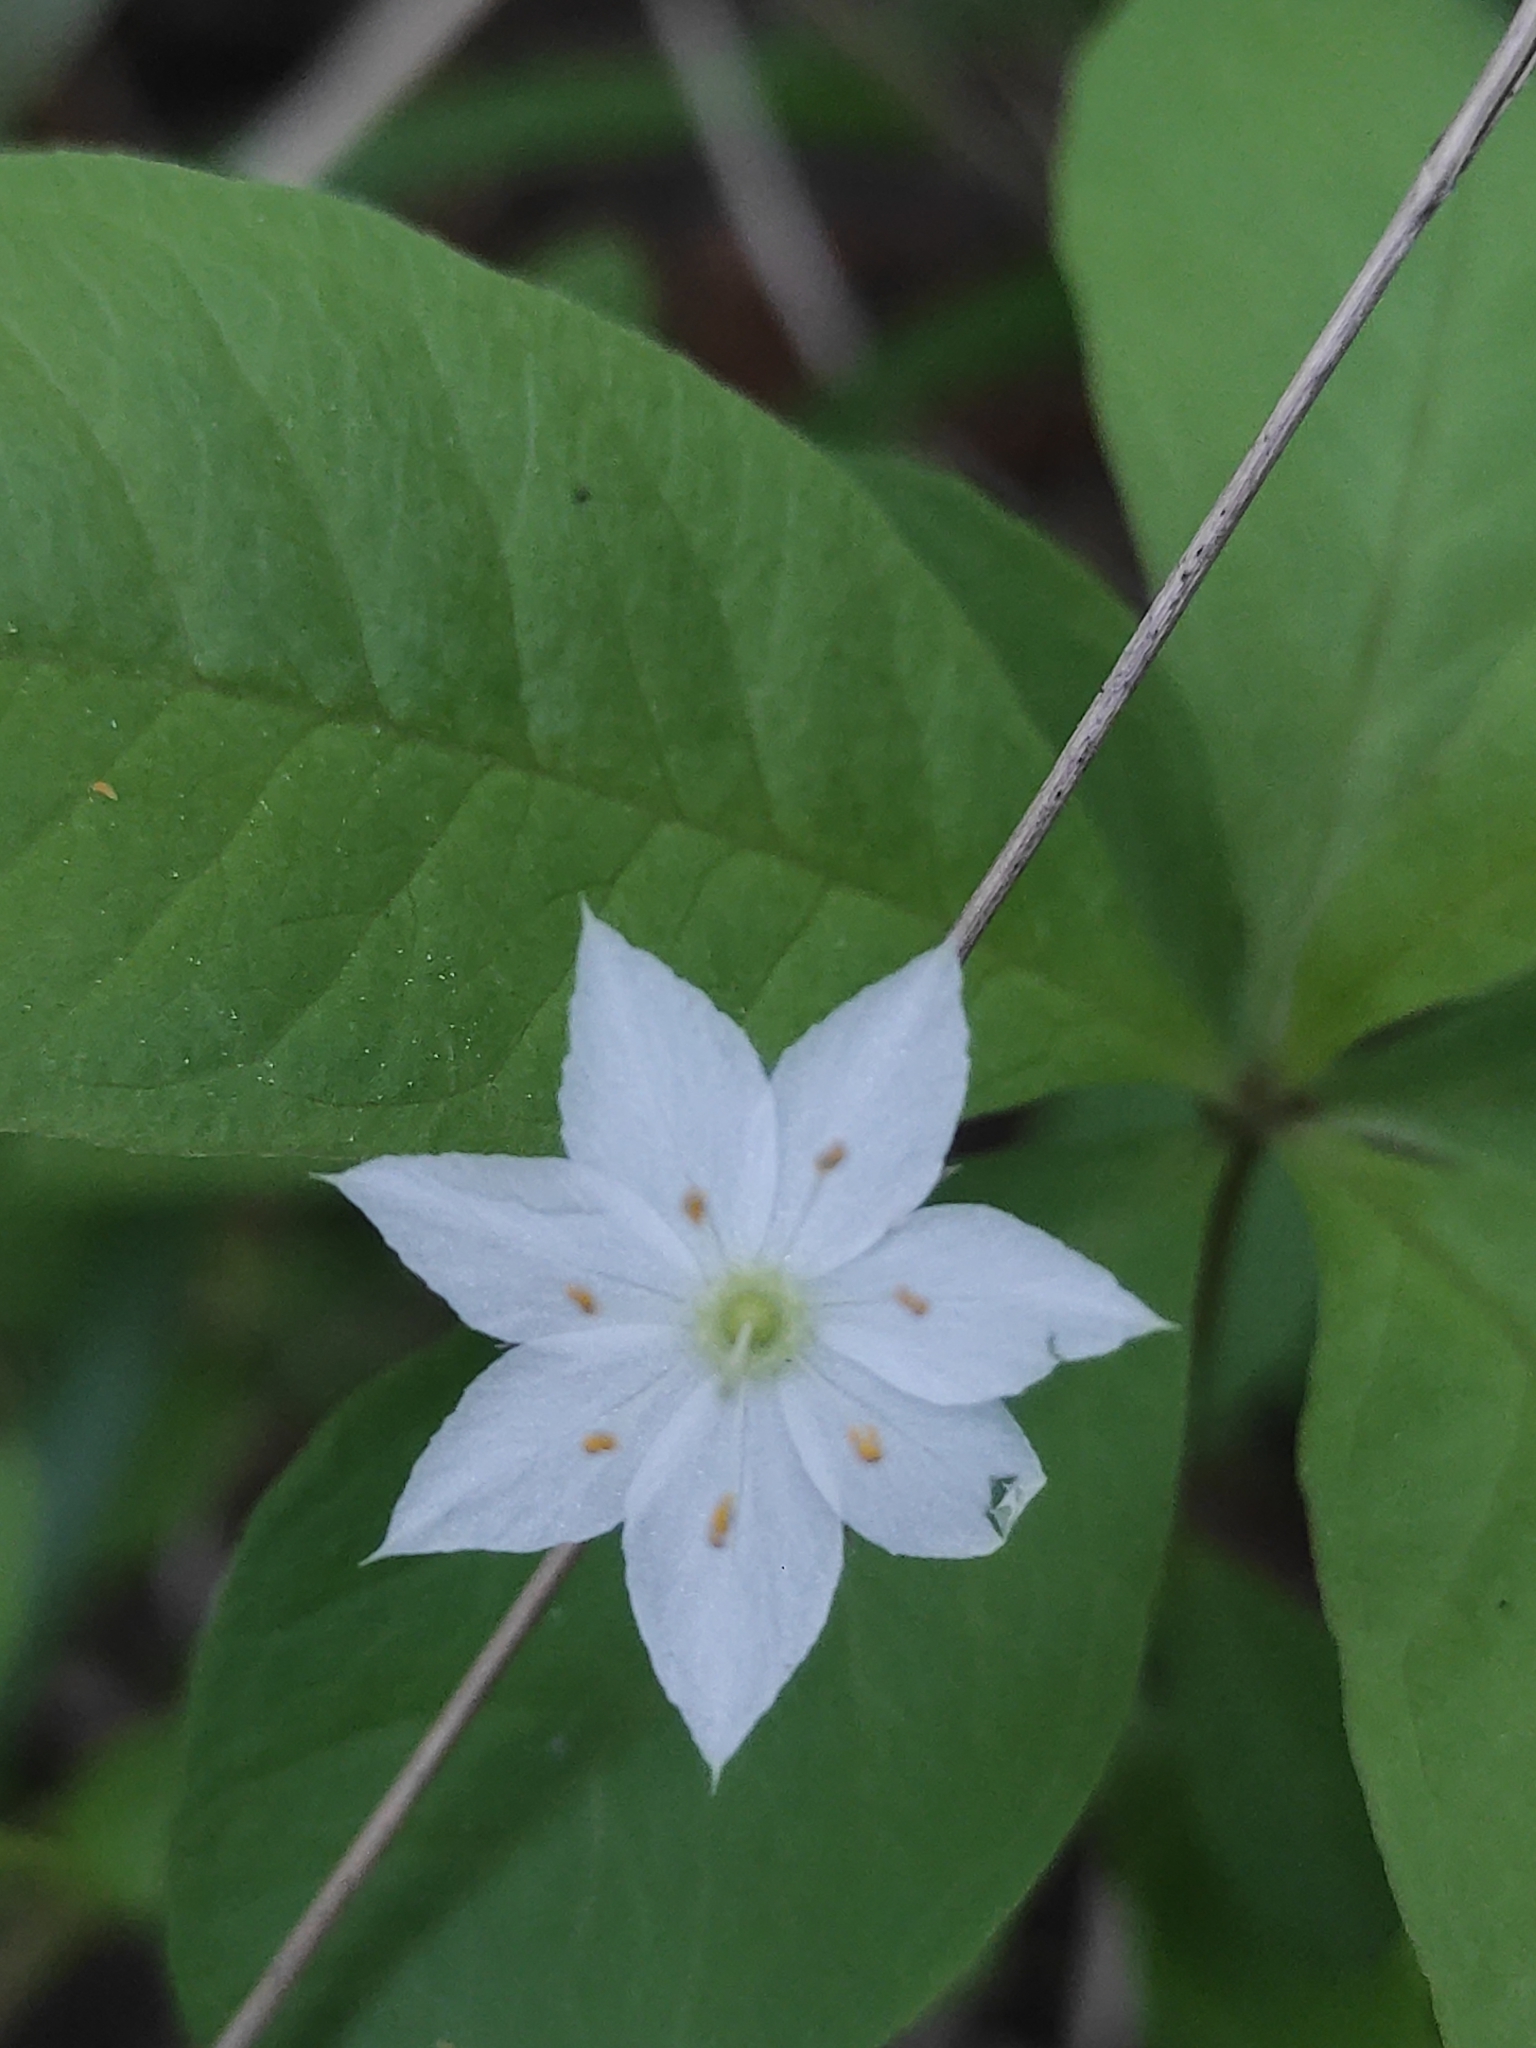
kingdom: Plantae
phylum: Tracheophyta
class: Magnoliopsida
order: Ericales
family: Primulaceae
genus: Lysimachia
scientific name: Lysimachia europaea
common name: Arctic starflower
